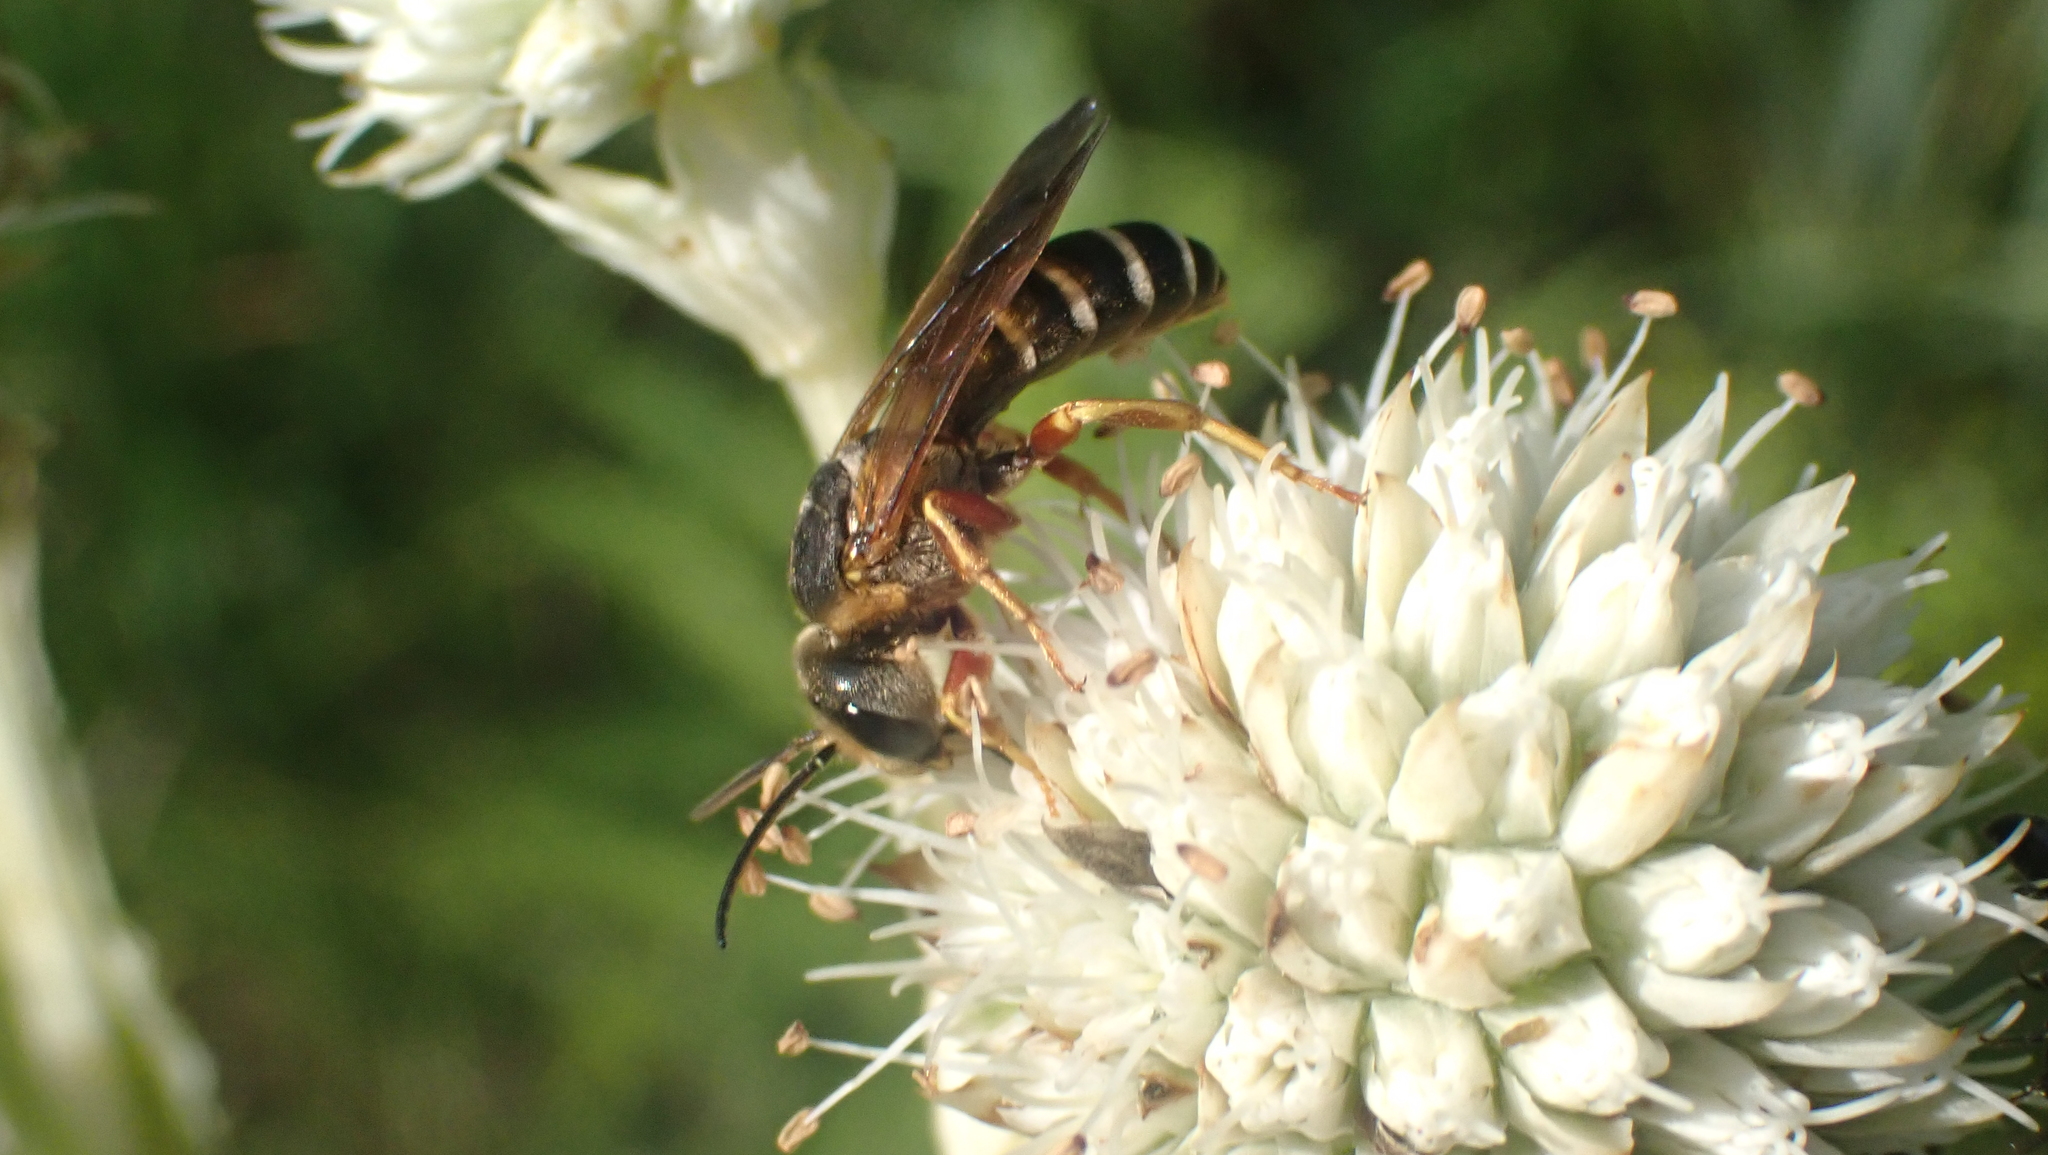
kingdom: Animalia
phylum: Arthropoda
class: Insecta
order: Hymenoptera
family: Halictidae
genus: Halictus
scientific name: Halictus parallelus
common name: Parallel-striped sweat bee
